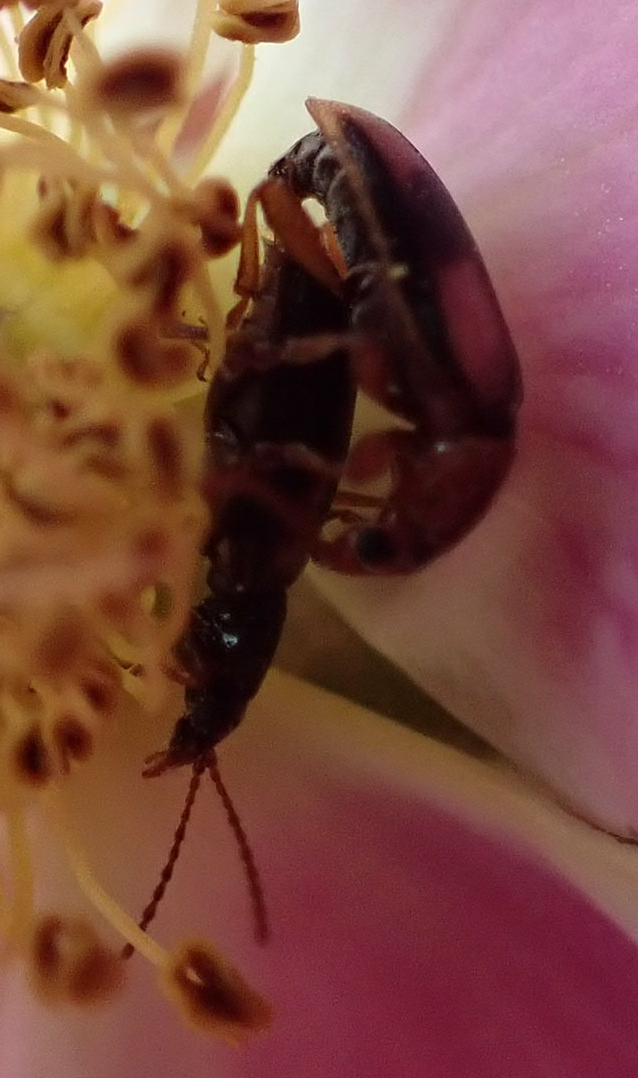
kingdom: Animalia
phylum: Arthropoda
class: Insecta
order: Coleoptera
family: Orsodacnidae
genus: Orsodacne
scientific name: Orsodacne atra
